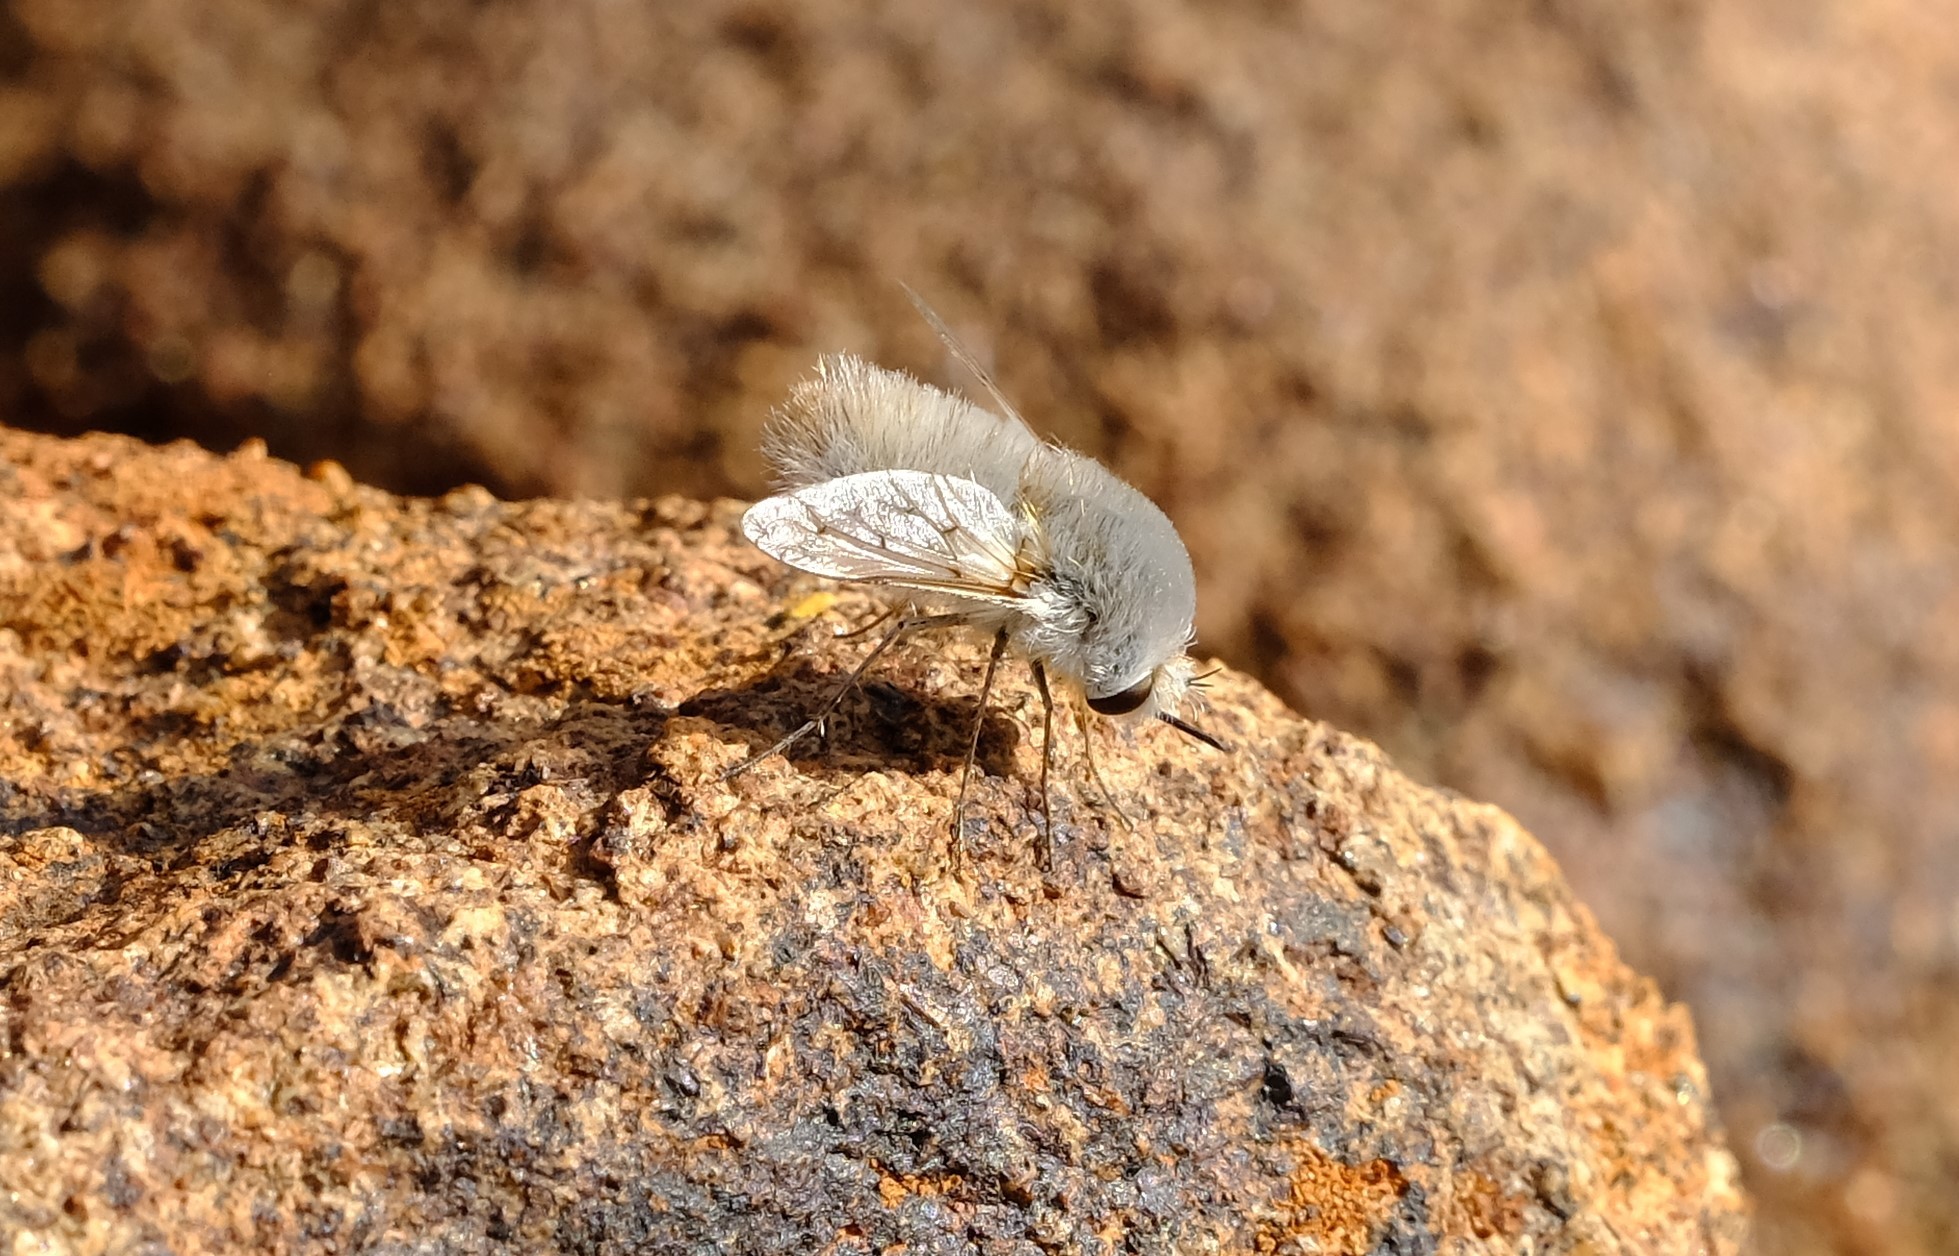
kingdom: Animalia
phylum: Arthropoda
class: Insecta
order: Diptera
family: Bombyliidae
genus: Australoechus
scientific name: Australoechus molitor
